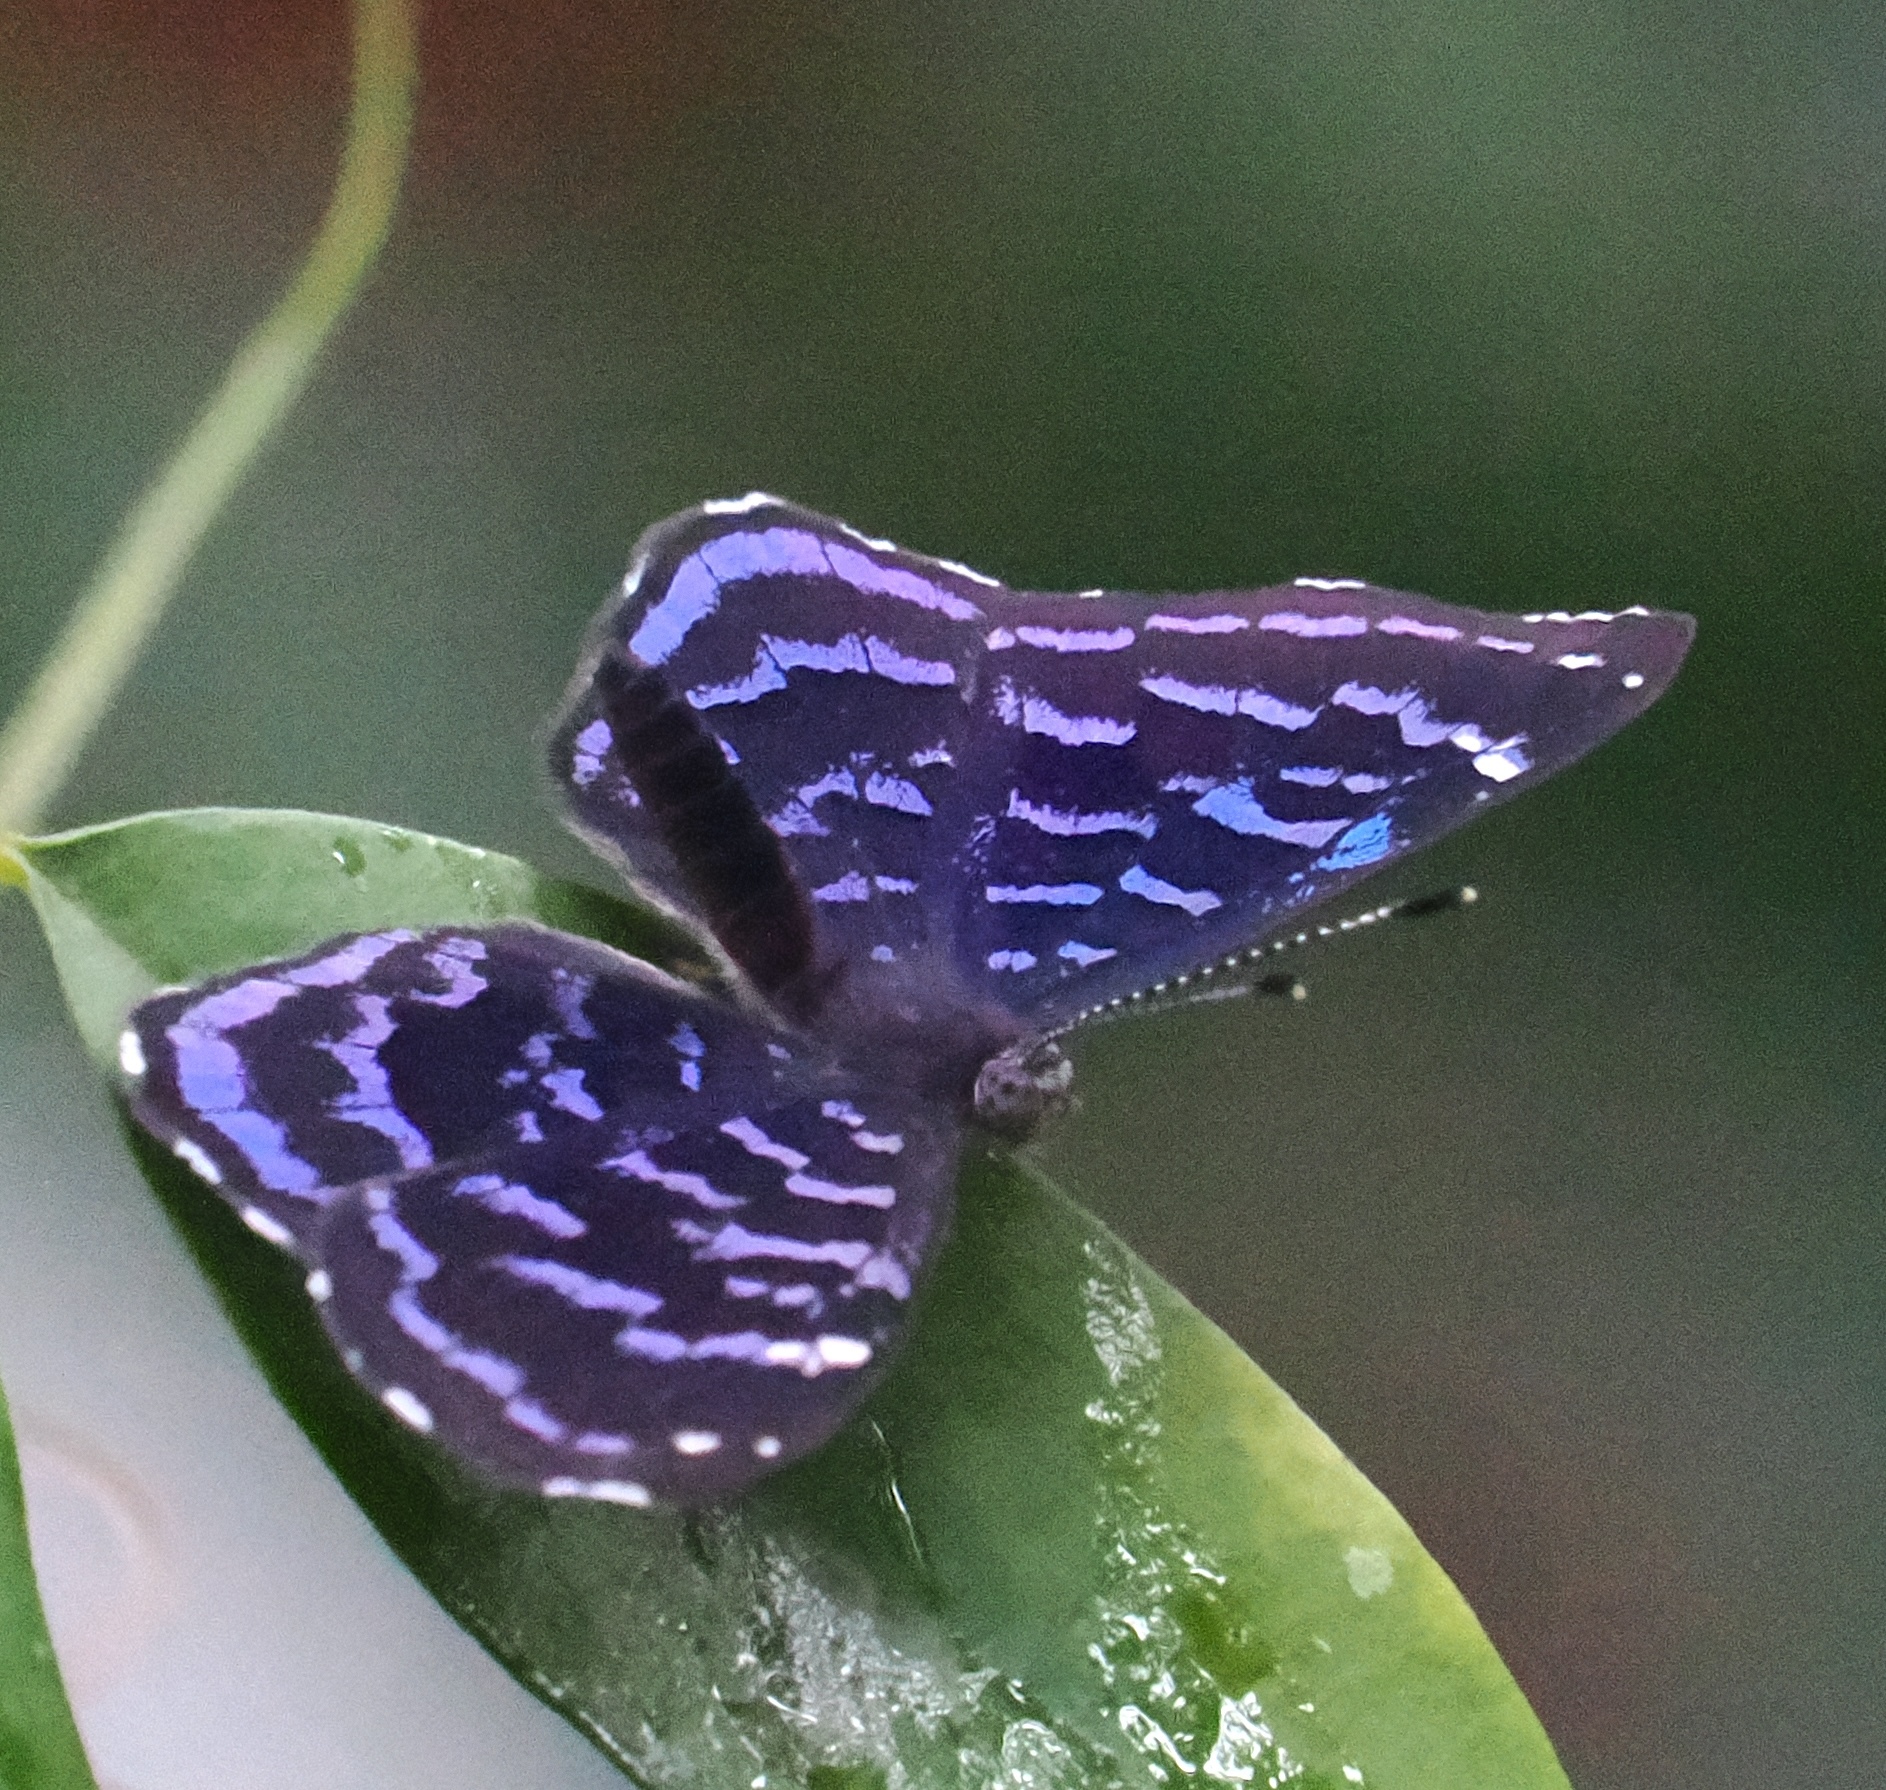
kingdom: Animalia
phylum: Arthropoda
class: Insecta
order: Lepidoptera
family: Riodinidae
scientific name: Riodinidae
